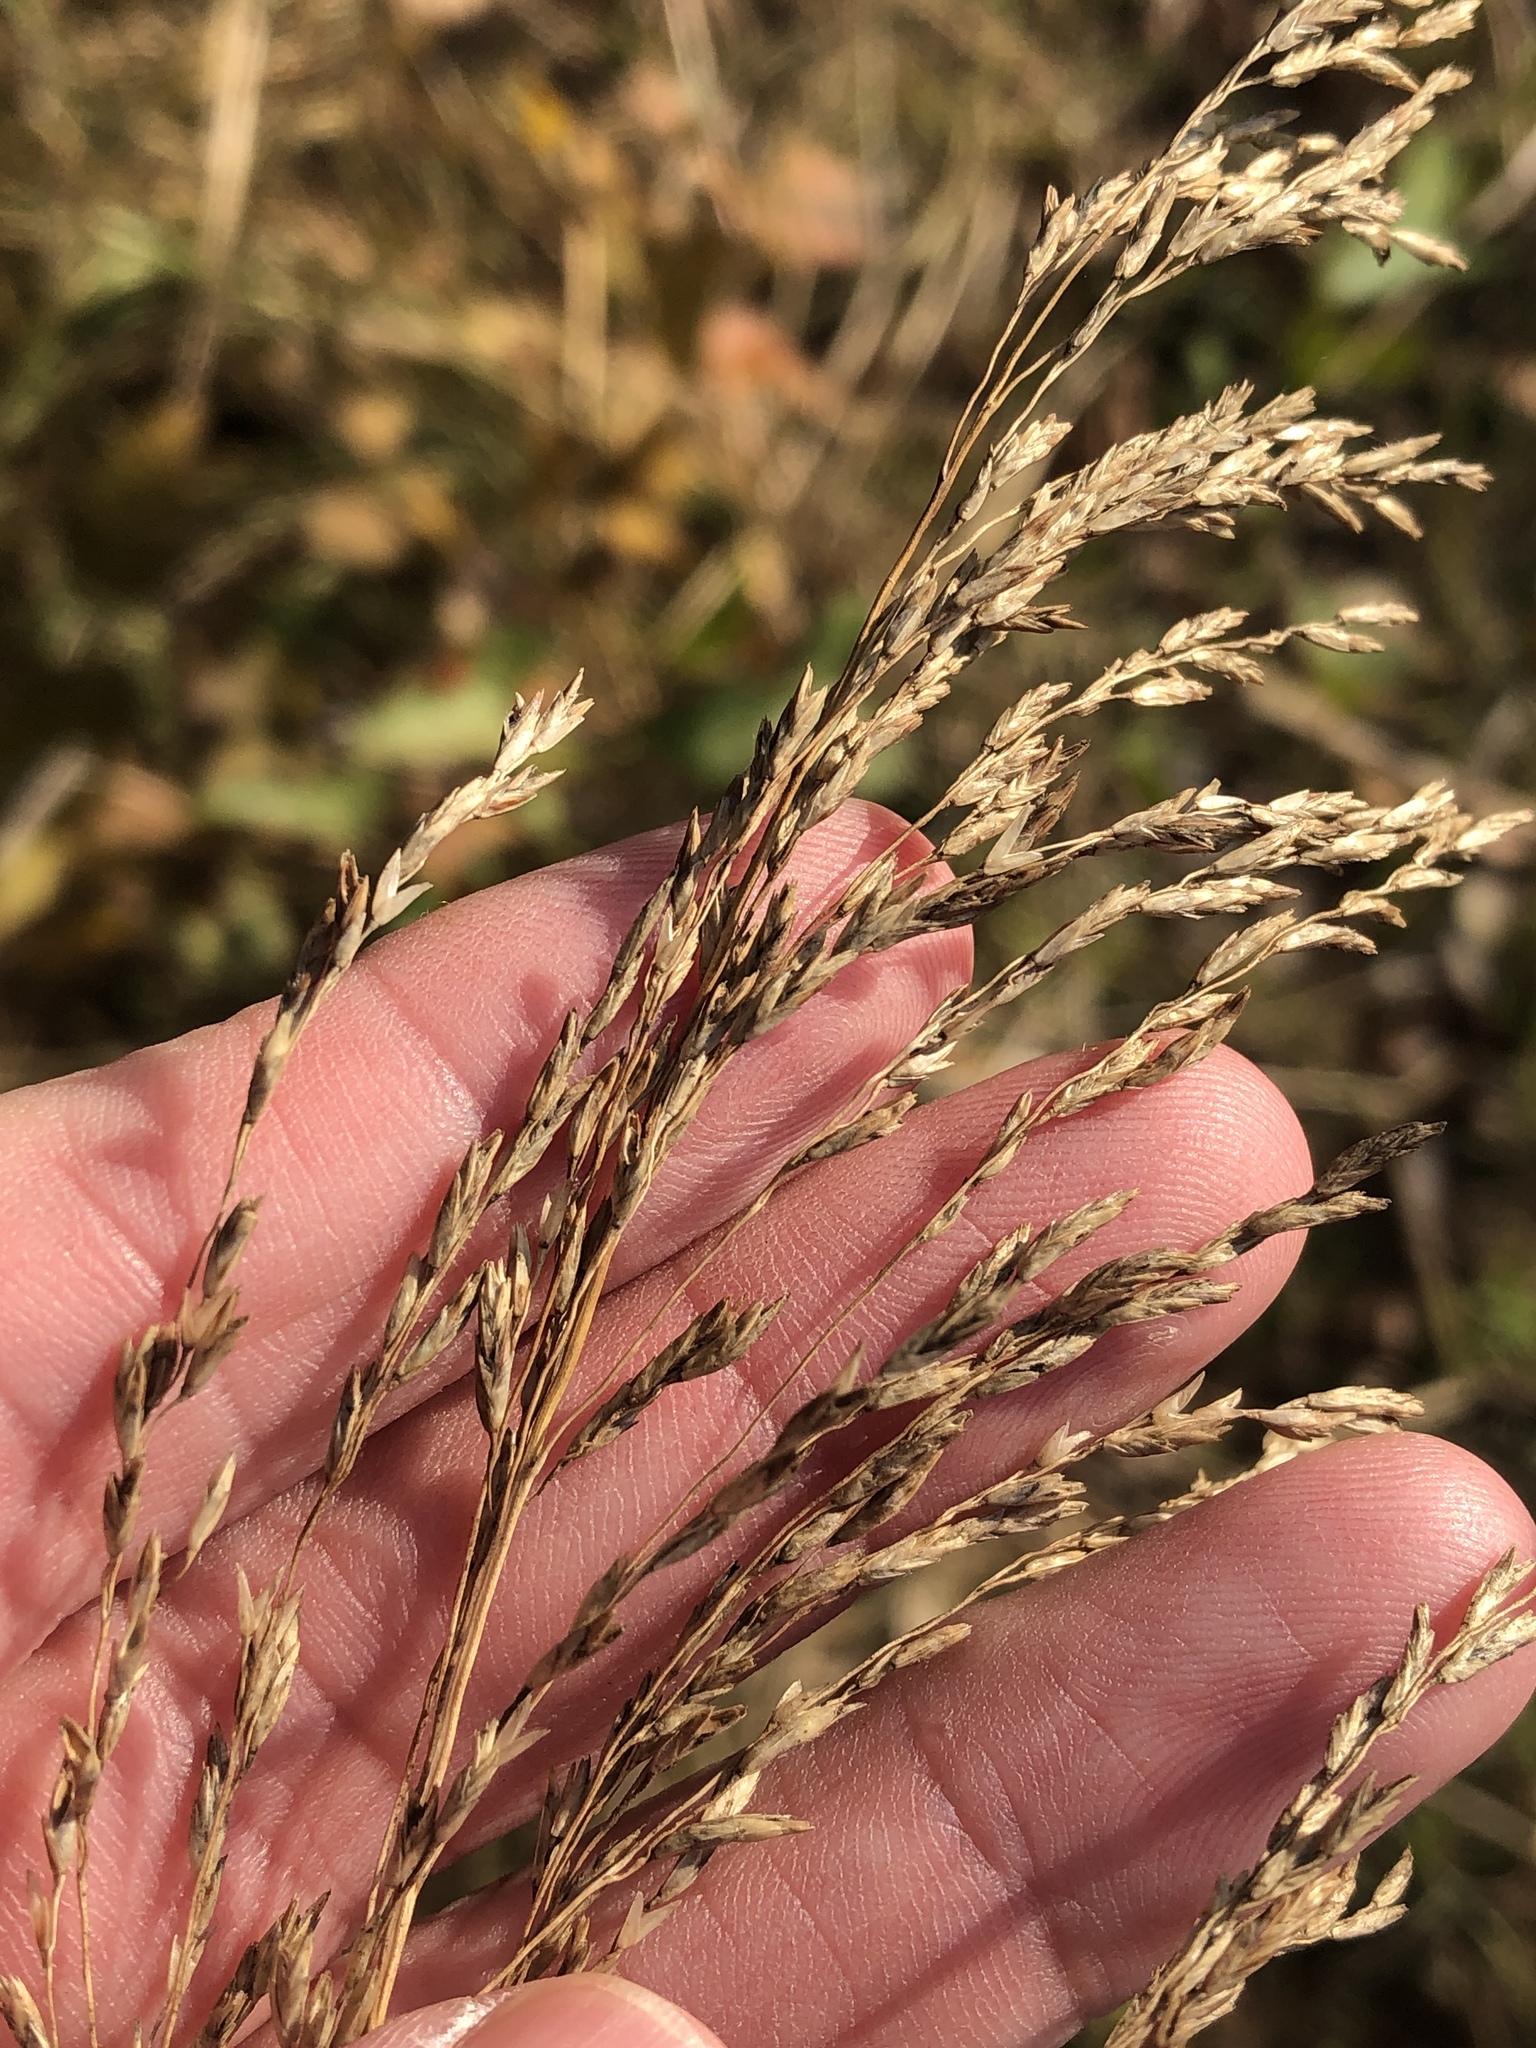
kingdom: Plantae
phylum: Tracheophyta
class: Liliopsida
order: Poales
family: Poaceae
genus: Tridens
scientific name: Tridens flavus
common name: Purpletop
